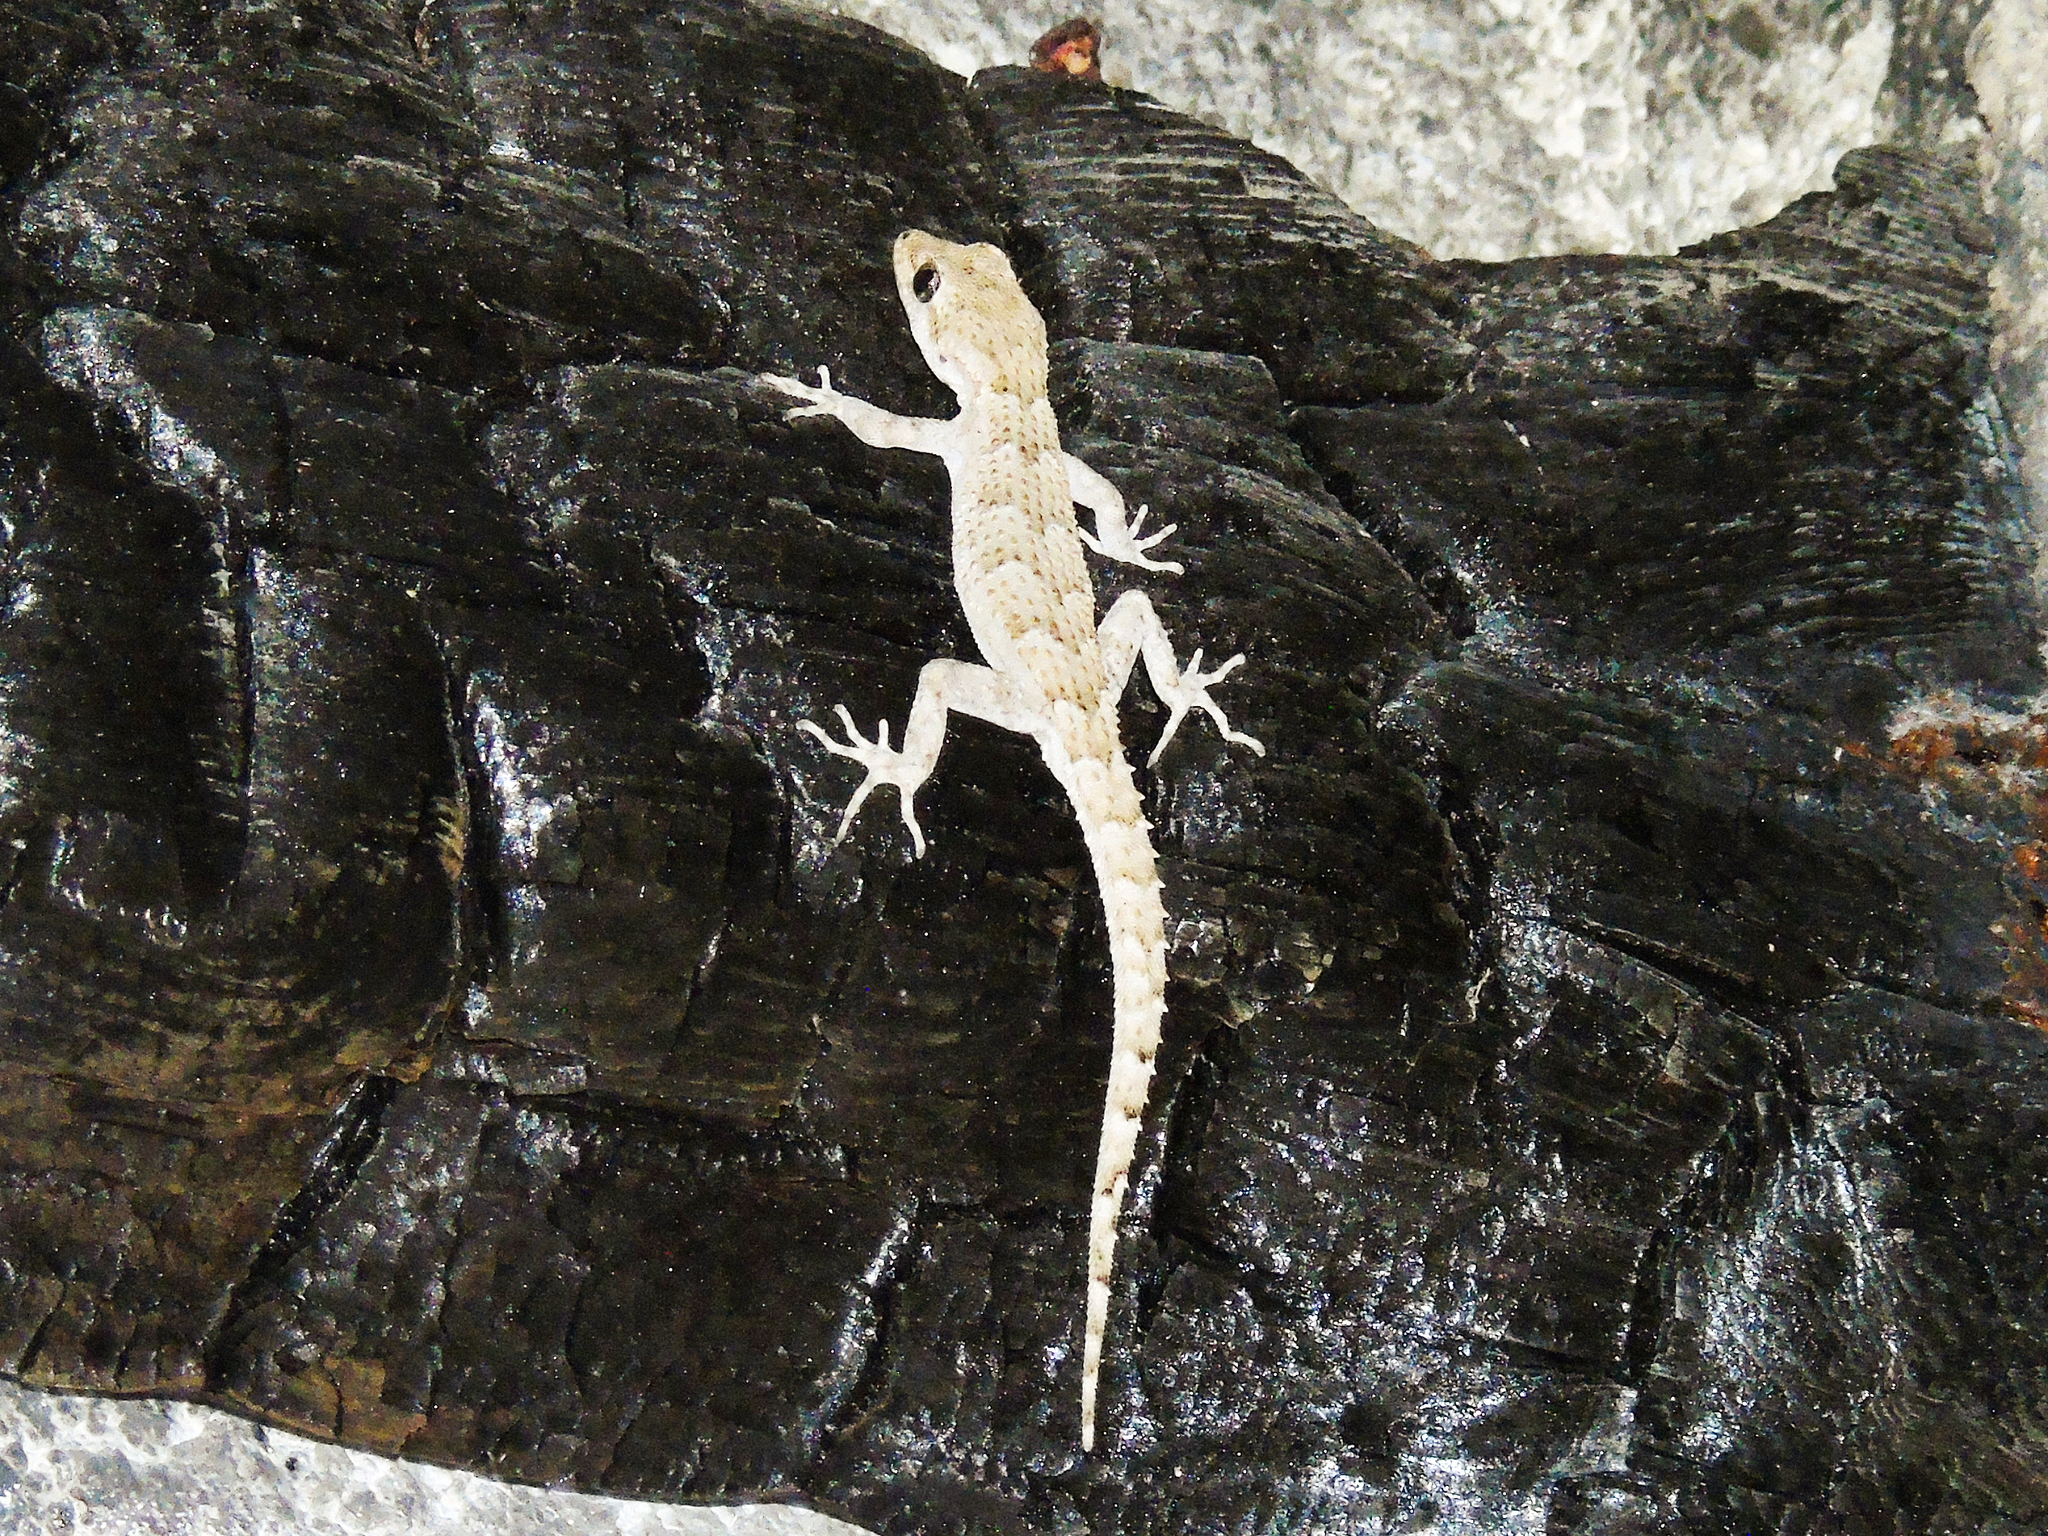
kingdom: Animalia
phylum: Chordata
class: Squamata
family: Gekkonidae
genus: Mediodactylus
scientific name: Mediodactylus kotschyi
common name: Kotschy's gecko
